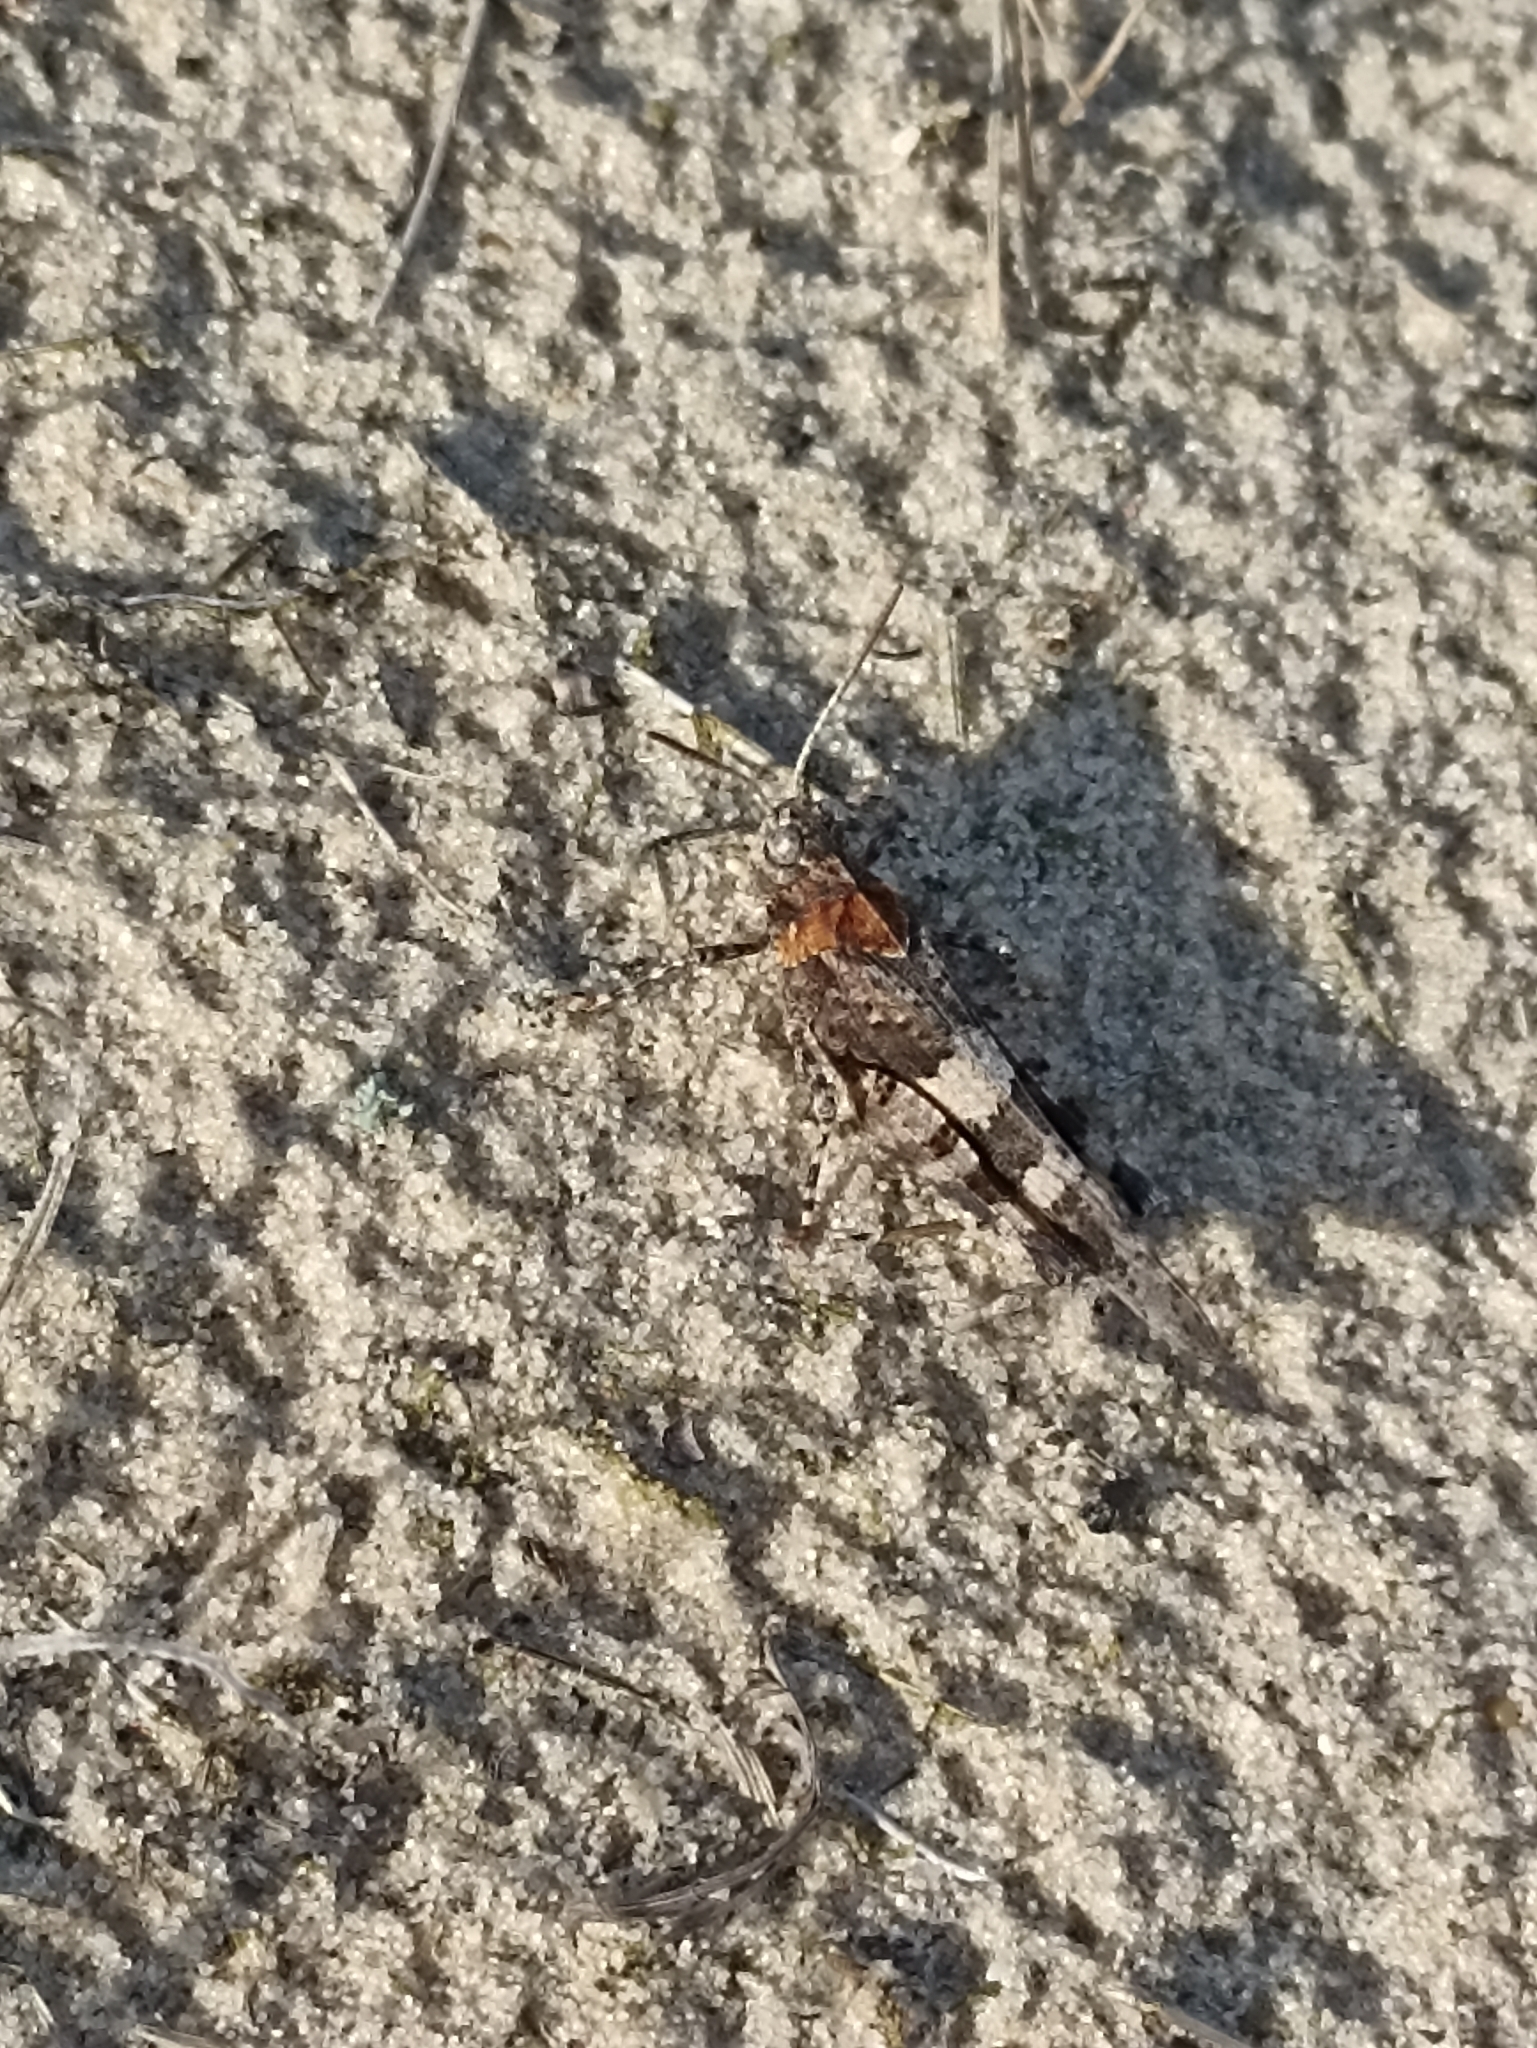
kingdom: Animalia
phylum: Arthropoda
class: Insecta
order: Orthoptera
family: Acrididae
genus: Oedipoda
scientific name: Oedipoda caerulescens
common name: Blue-winged grasshopper
